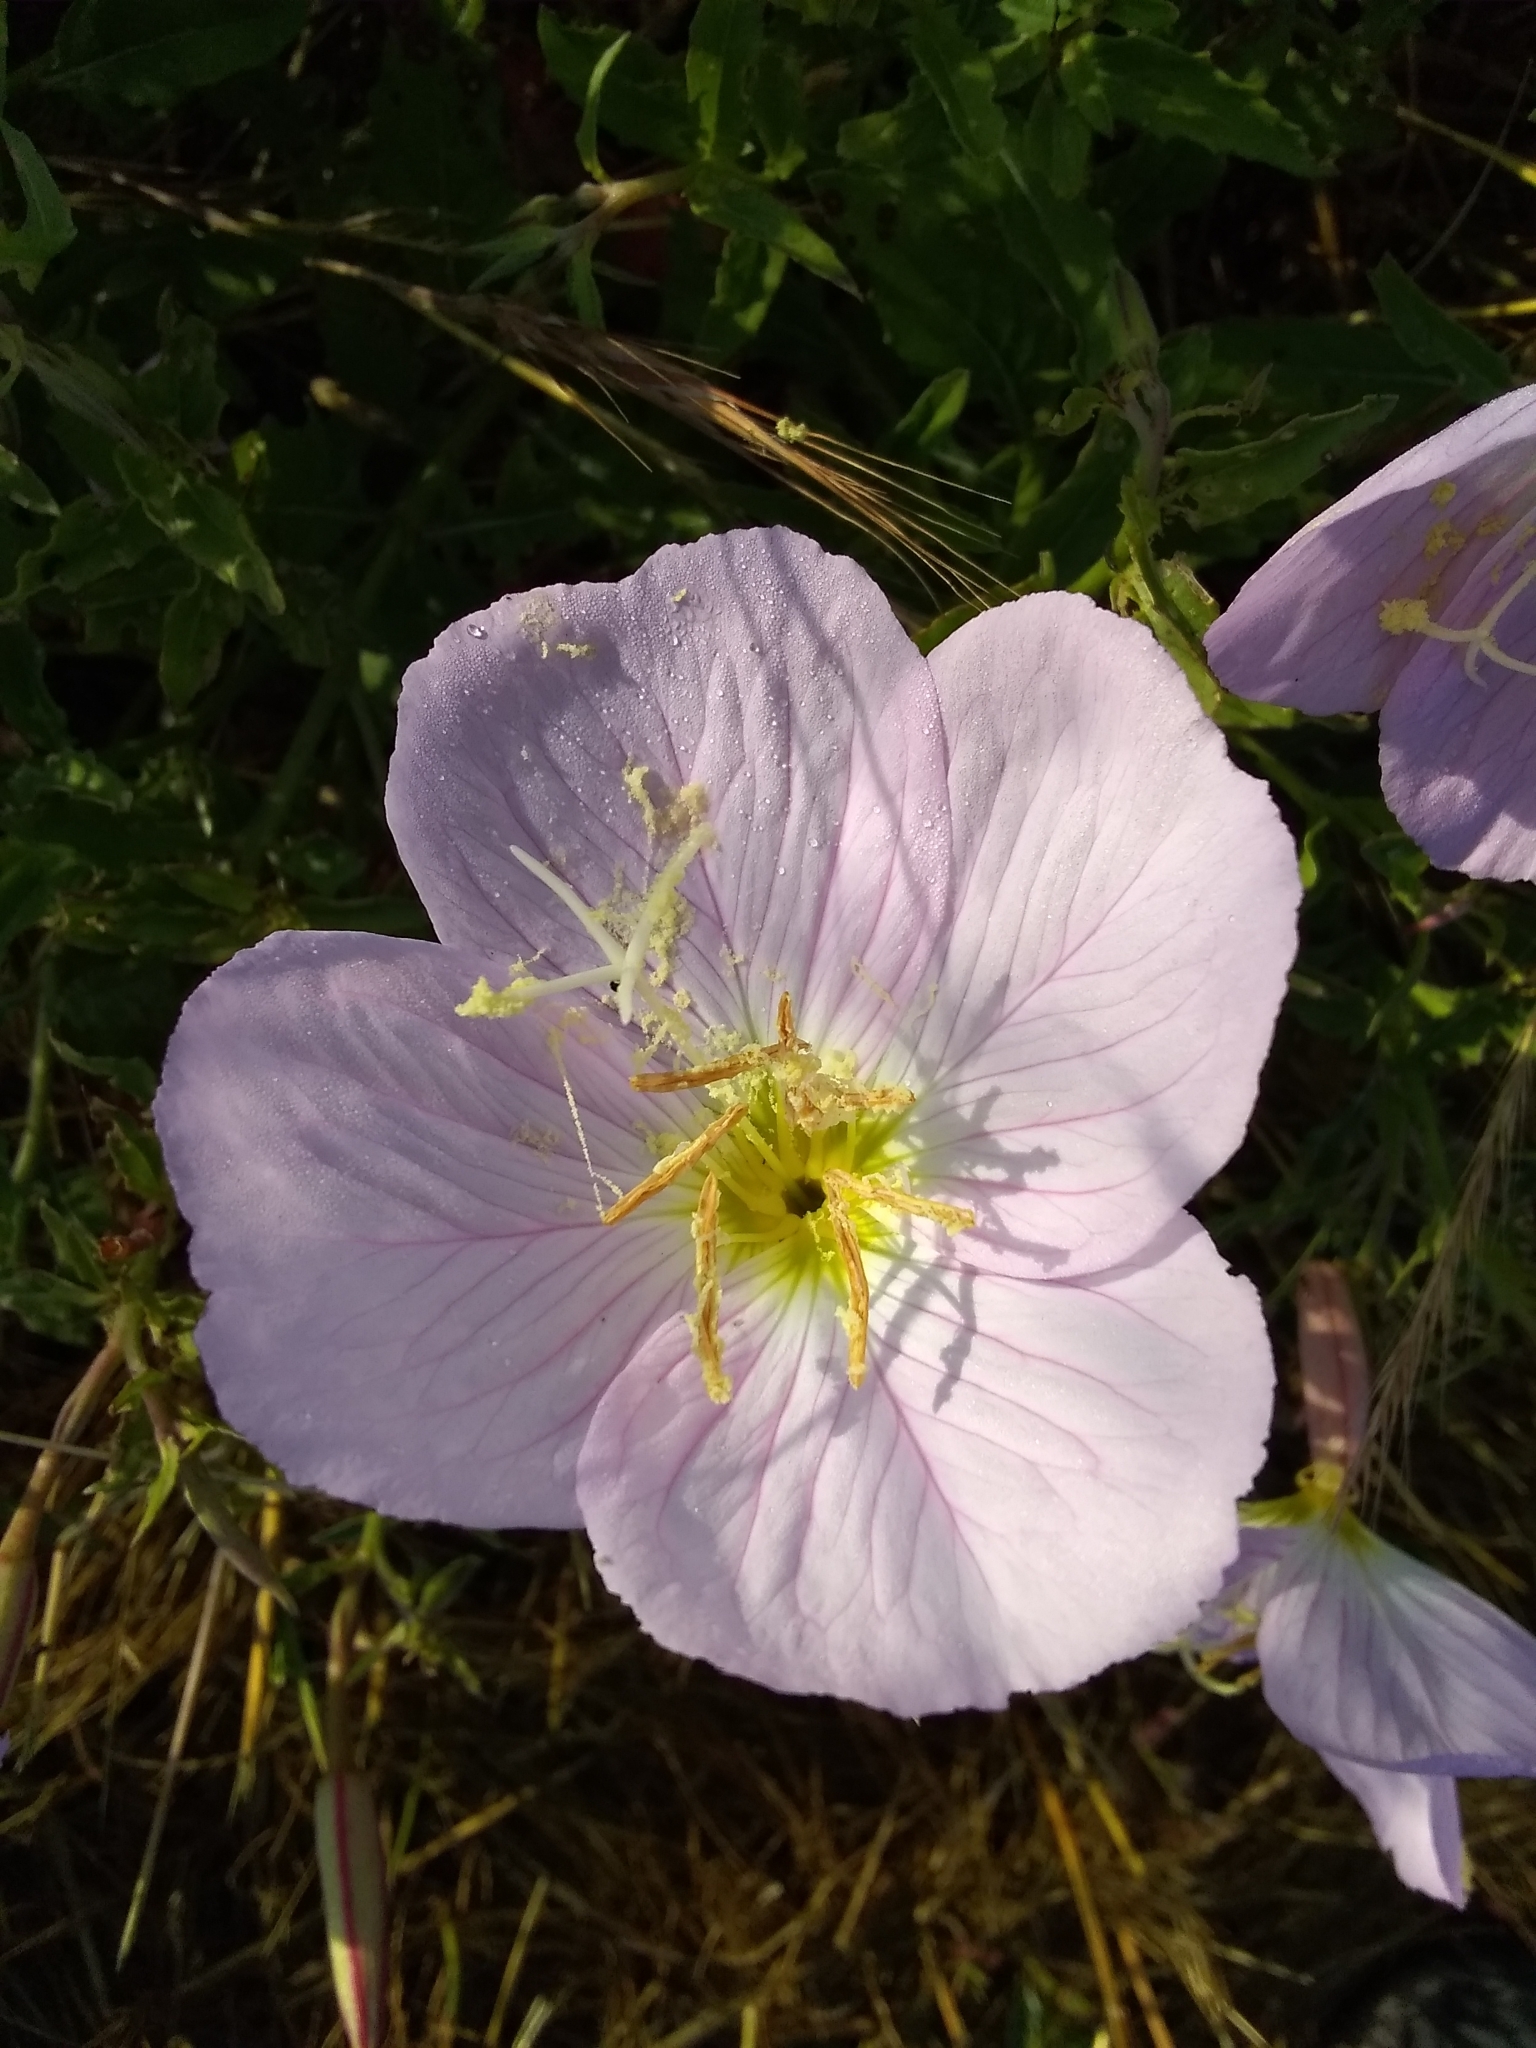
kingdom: Plantae
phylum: Tracheophyta
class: Magnoliopsida
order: Myrtales
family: Onagraceae
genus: Oenothera
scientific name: Oenothera speciosa
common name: White evening-primrose
